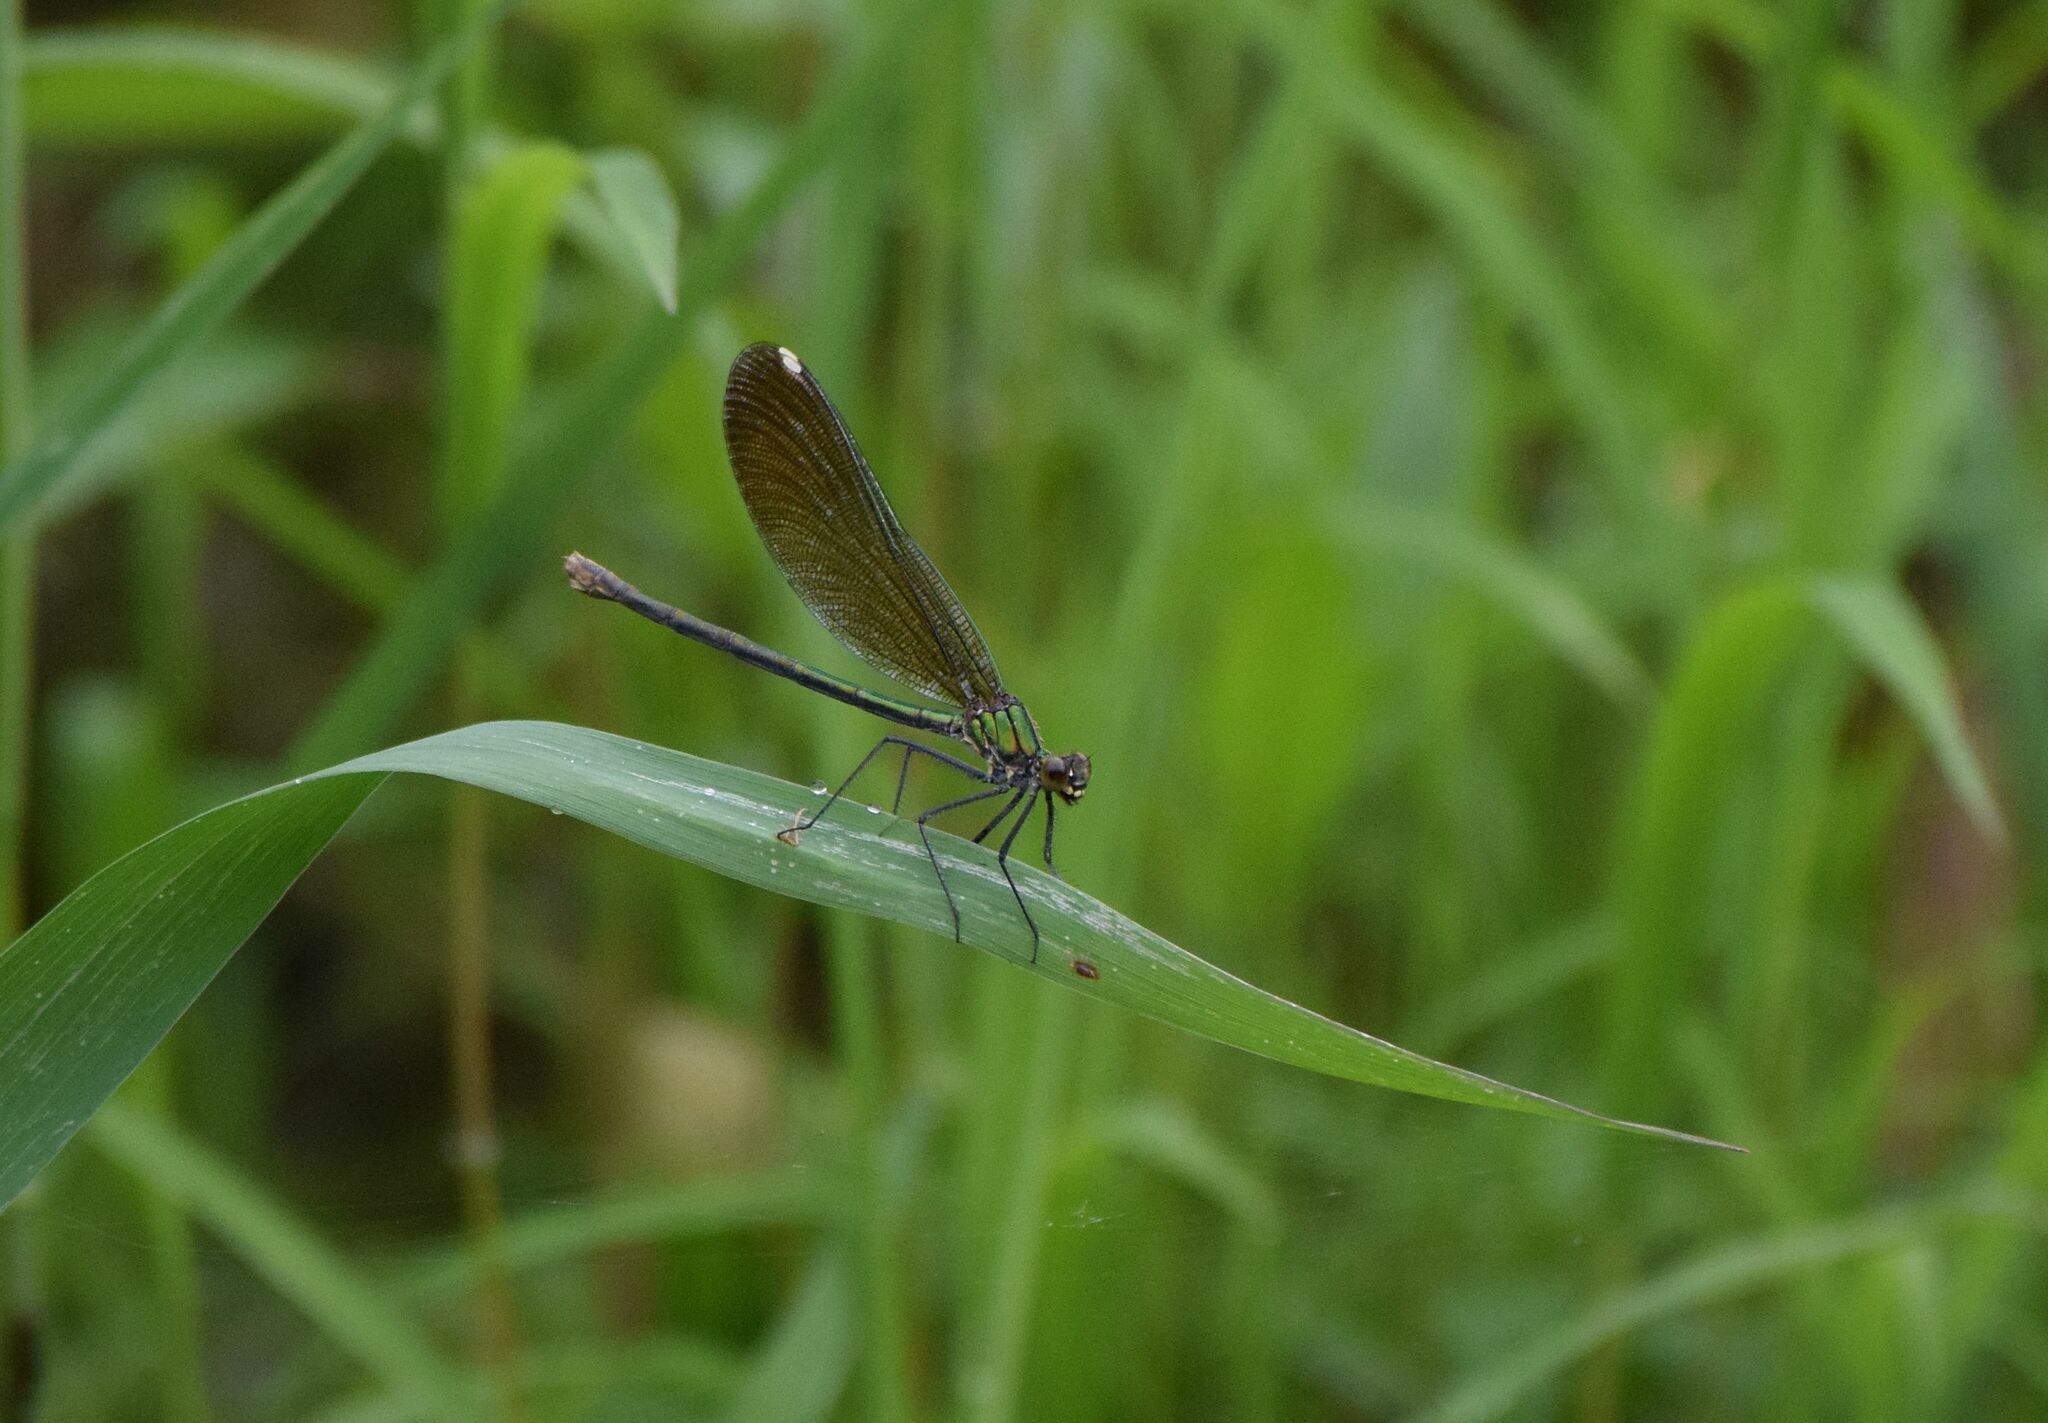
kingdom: Animalia
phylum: Arthropoda
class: Insecta
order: Odonata
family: Calopterygidae
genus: Calopteryx
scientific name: Calopteryx aequabilis
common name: River jewelwing
